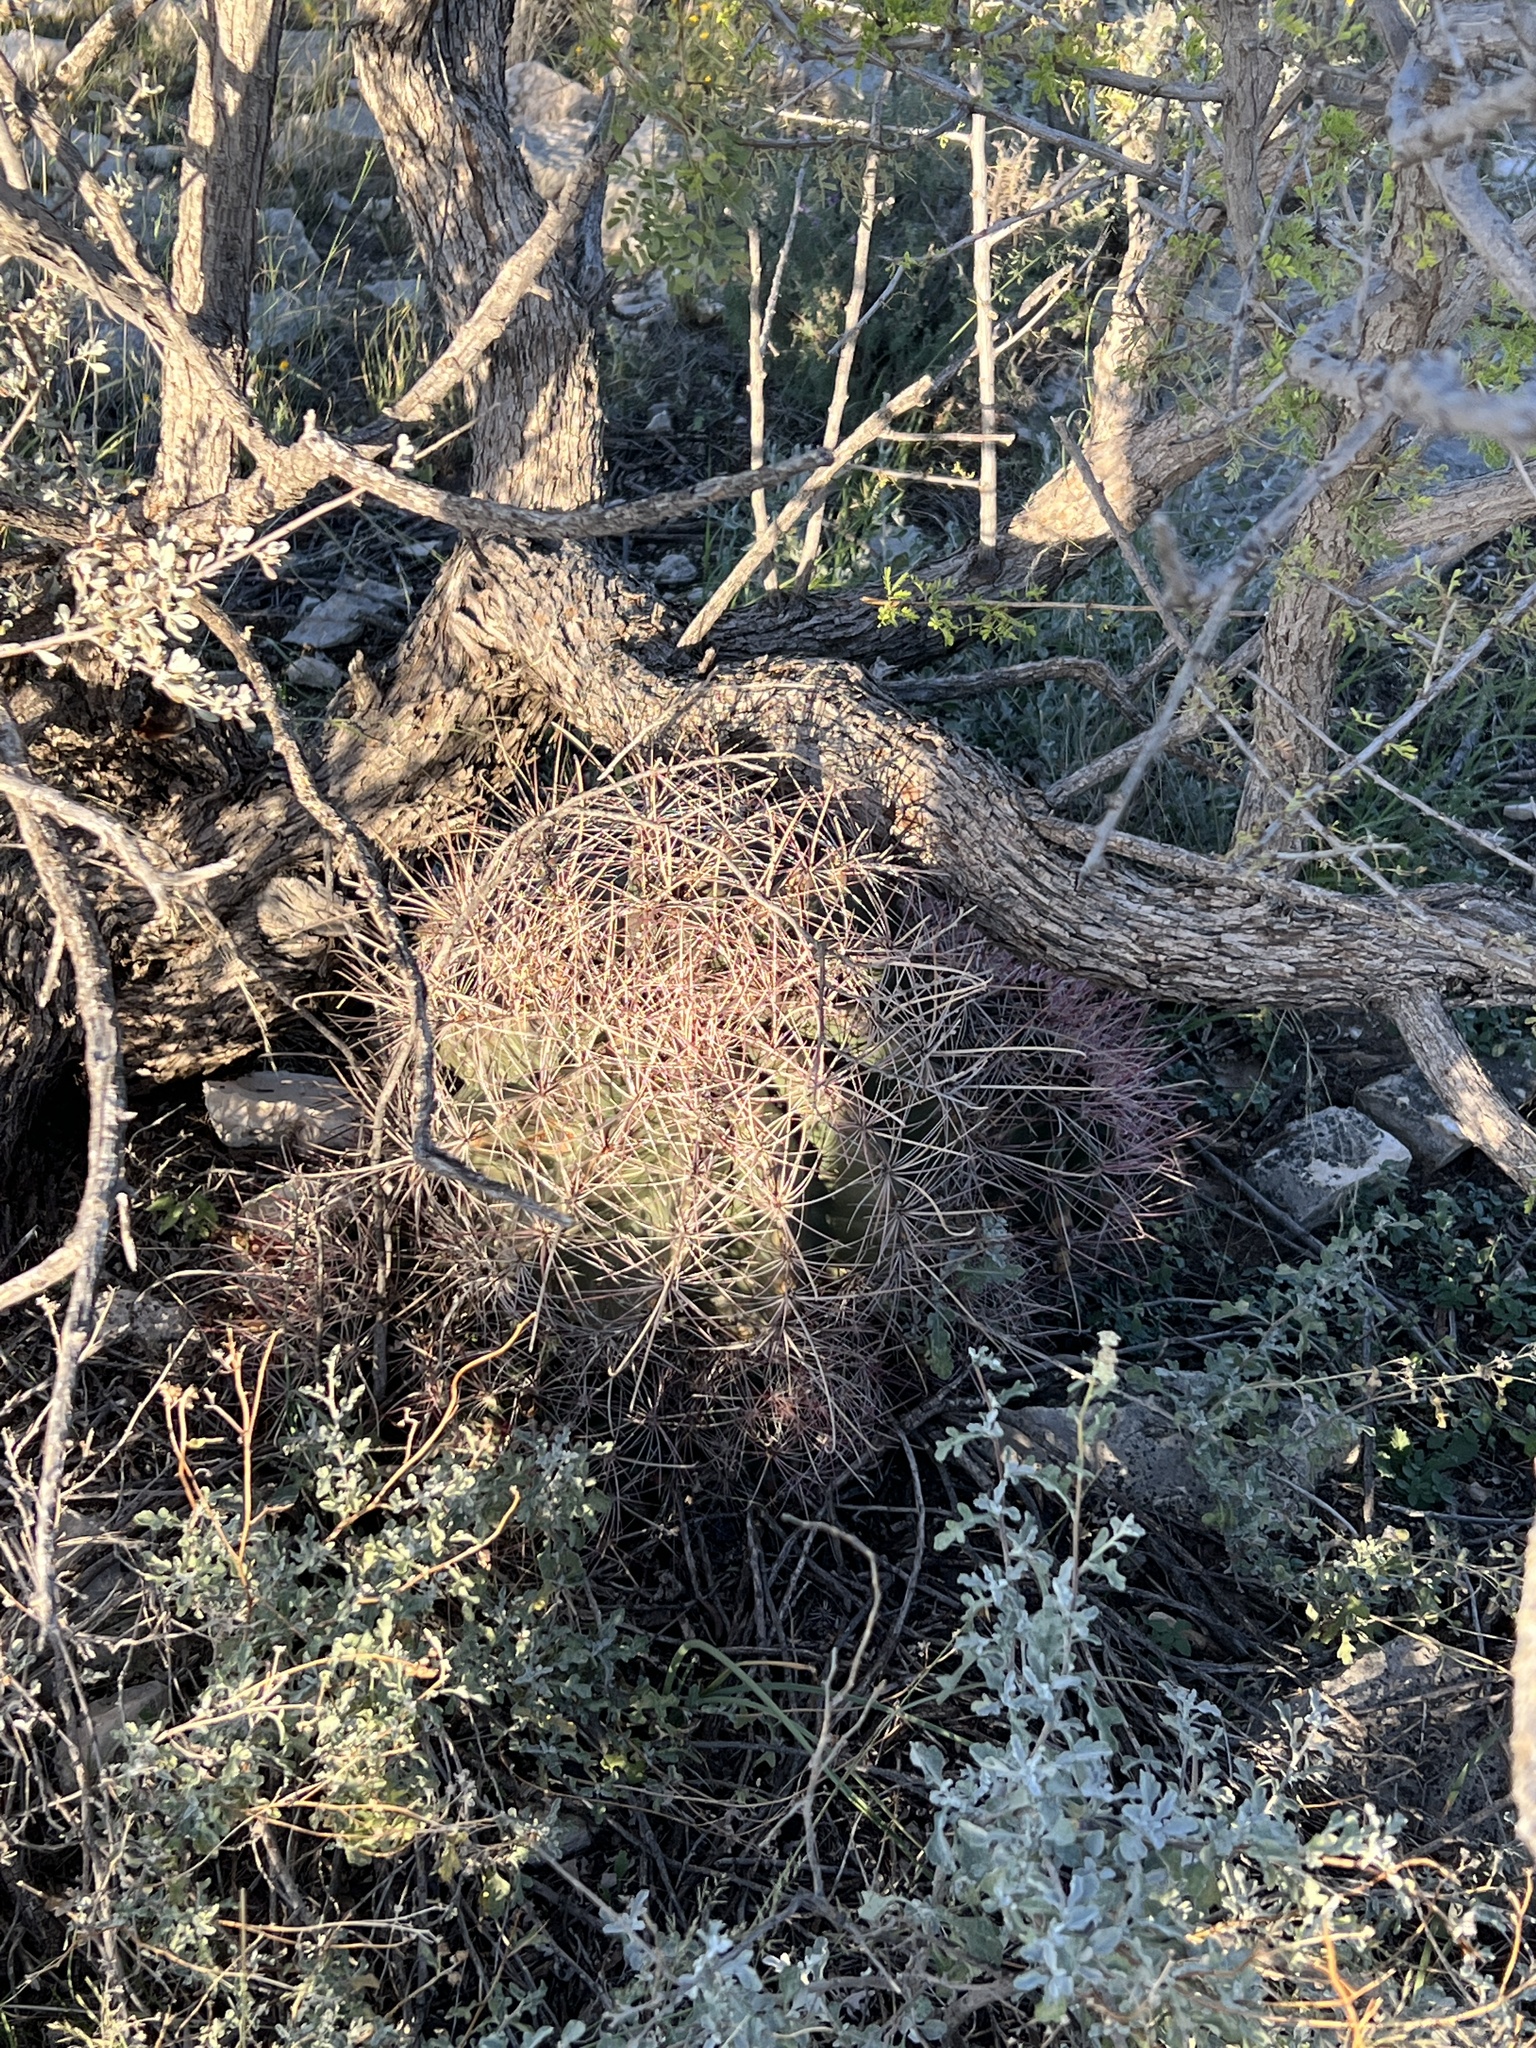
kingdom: Plantae
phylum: Tracheophyta
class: Magnoliopsida
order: Caryophyllales
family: Cactaceae
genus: Bisnaga
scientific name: Bisnaga hamatacantha
